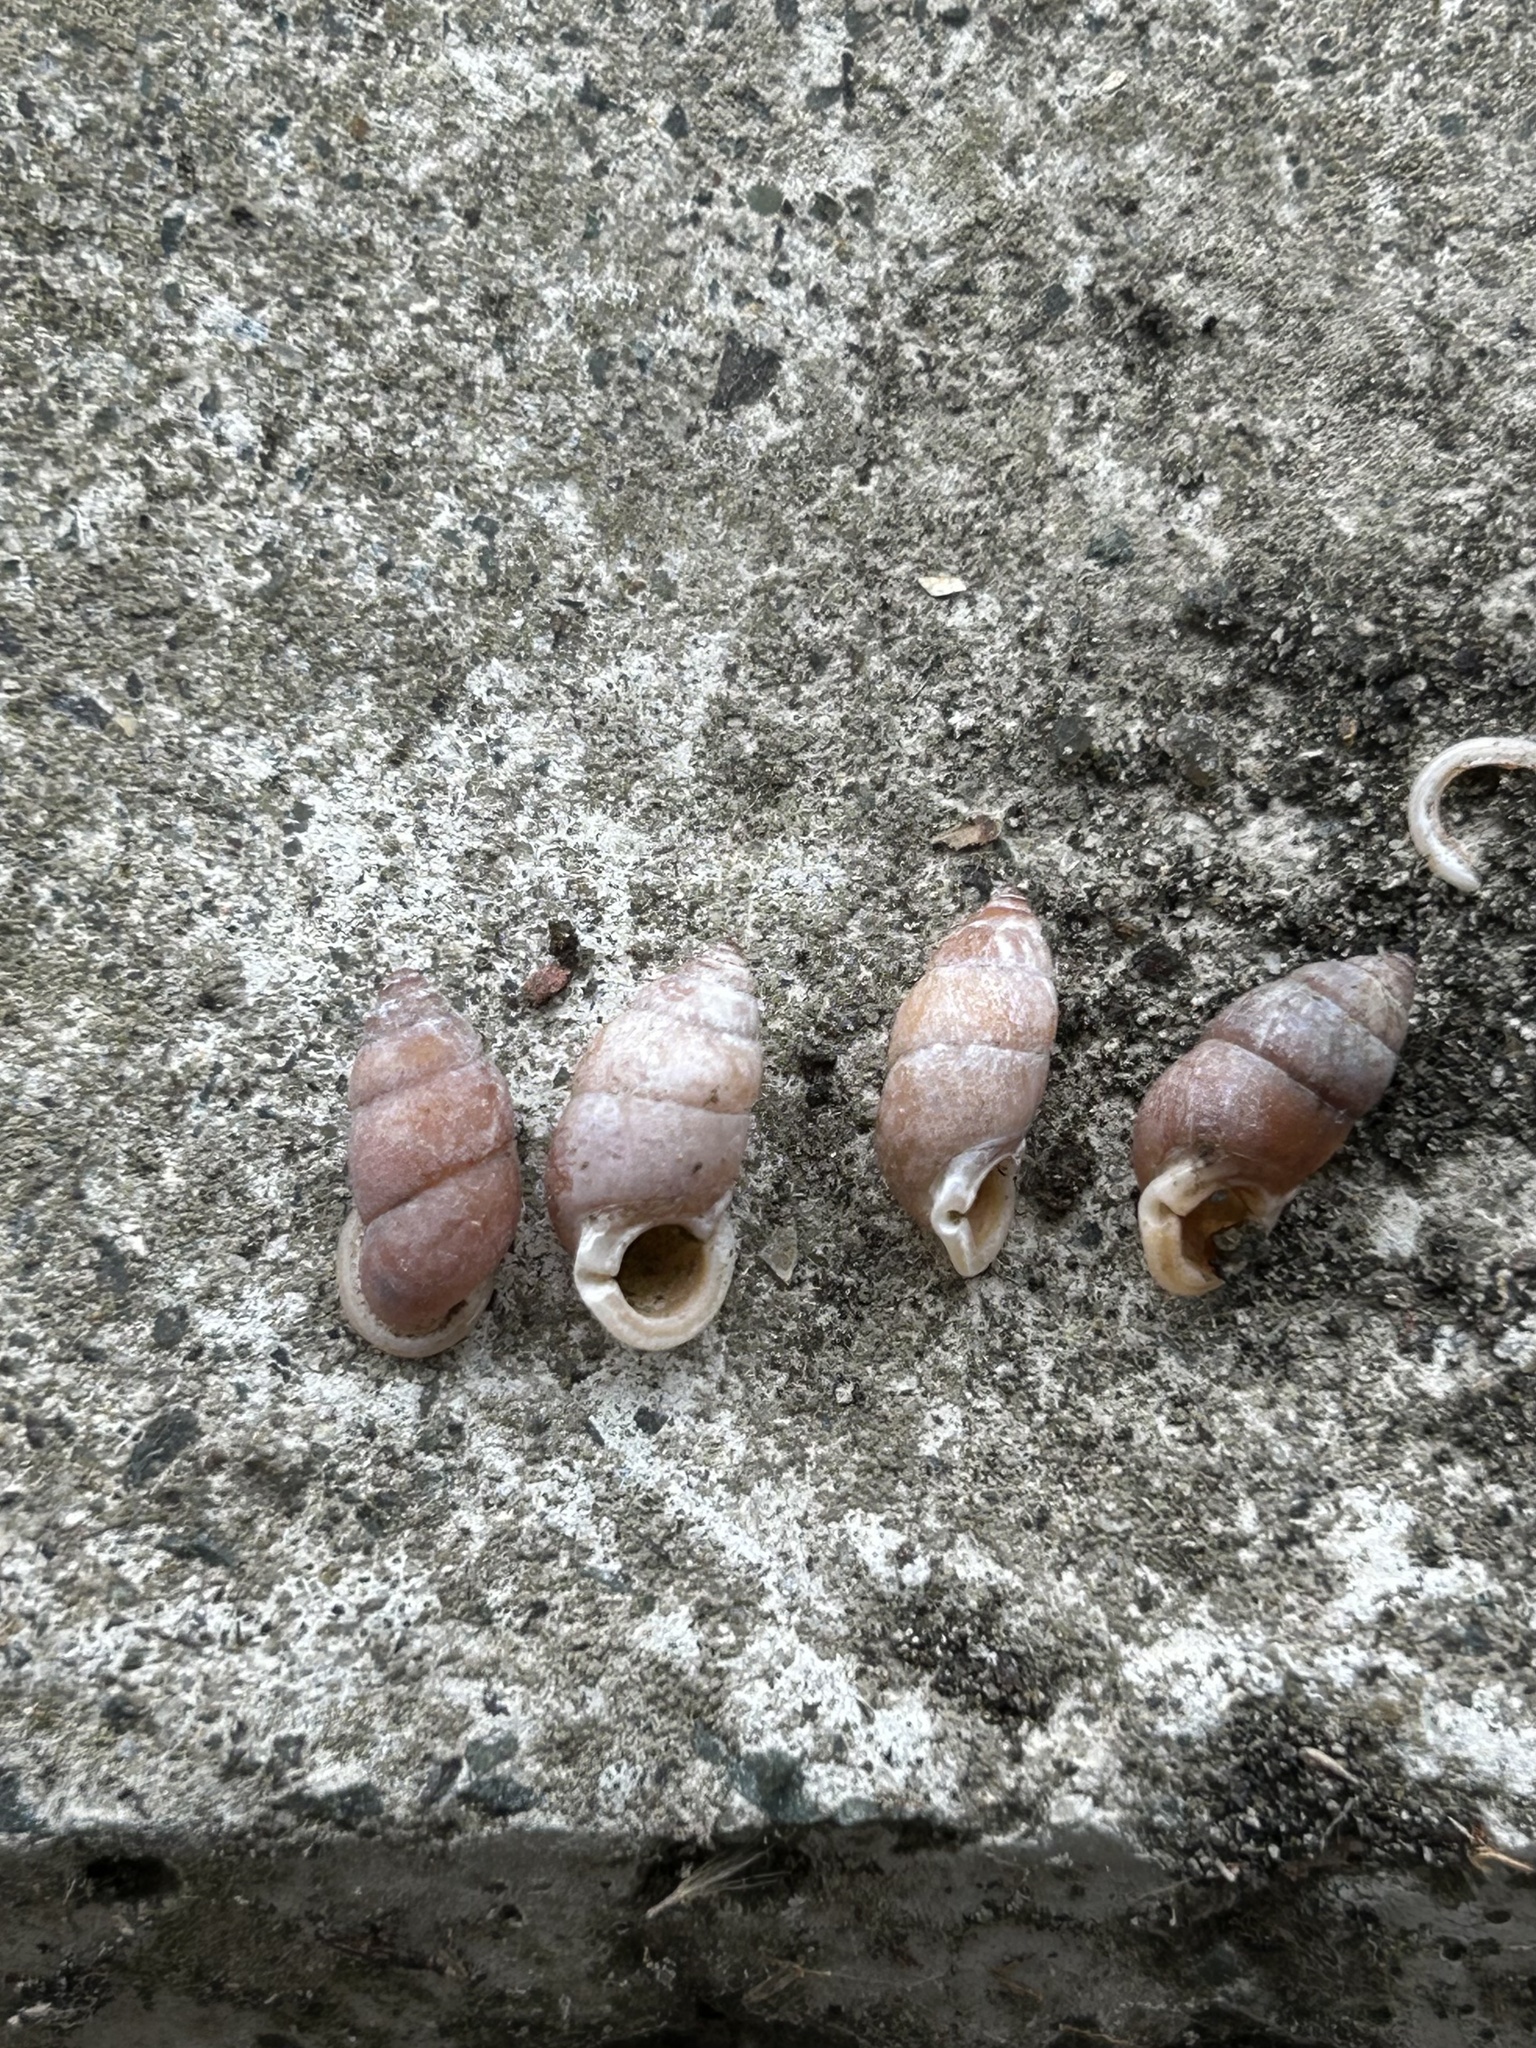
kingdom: Animalia
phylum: Mollusca
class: Gastropoda
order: Architaenioglossa
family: Pupinidae
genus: Pupinella
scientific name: Pupinella rufa
